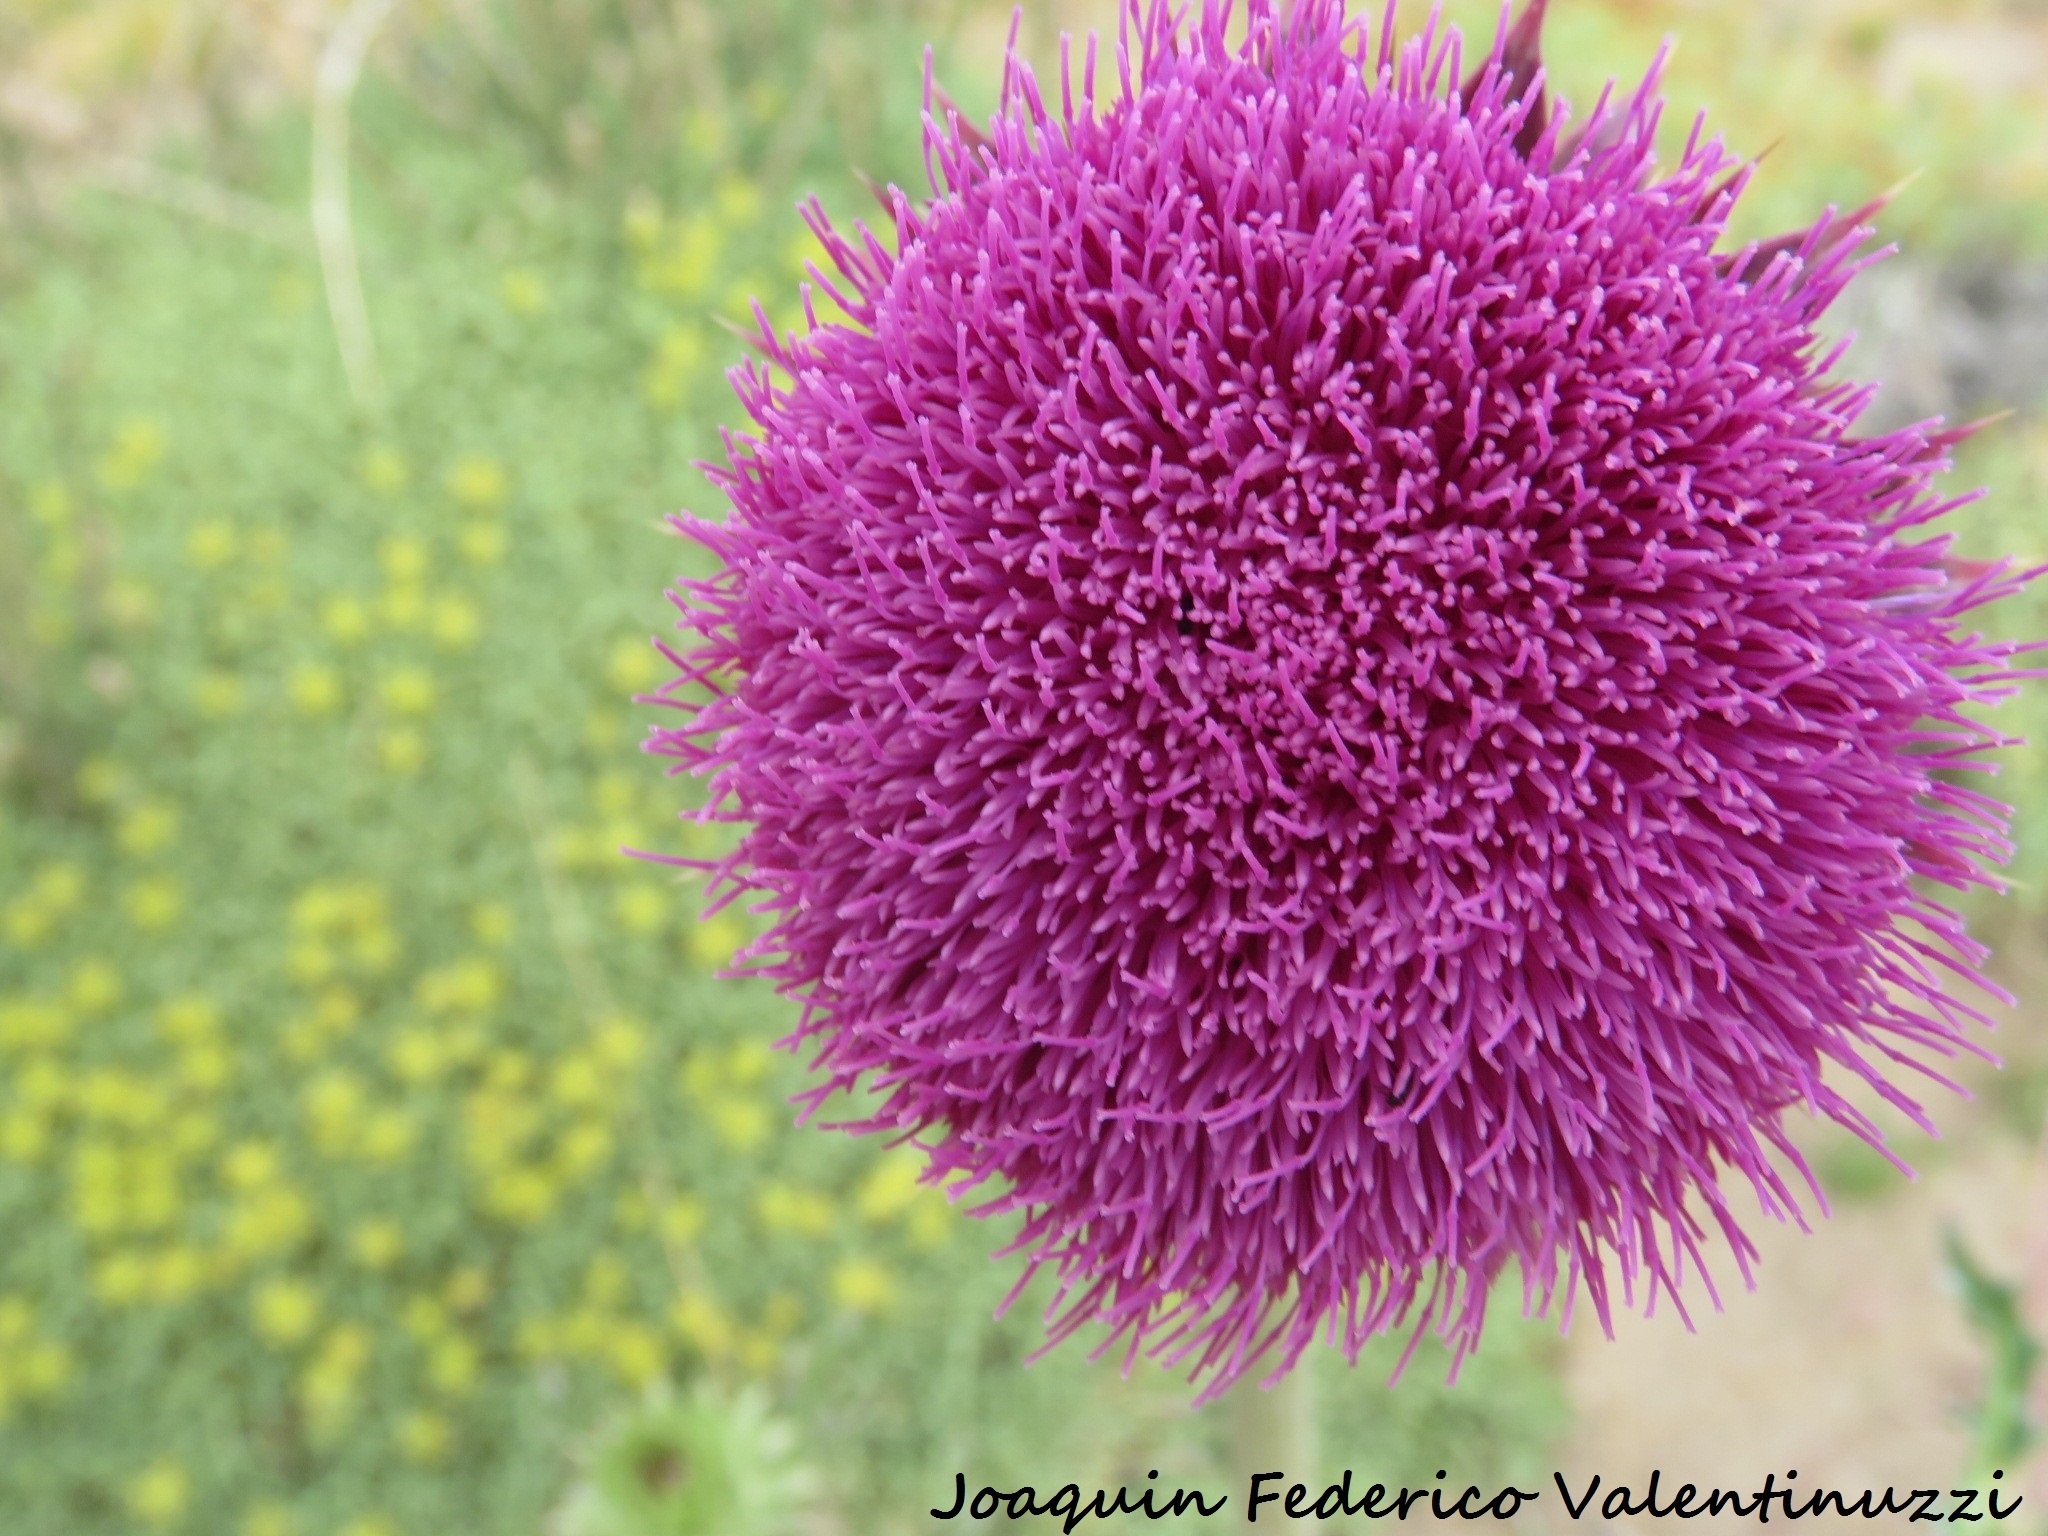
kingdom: Plantae
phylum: Tracheophyta
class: Magnoliopsida
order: Asterales
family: Asteraceae
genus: Carduus
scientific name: Carduus nutans
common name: Musk thistle
